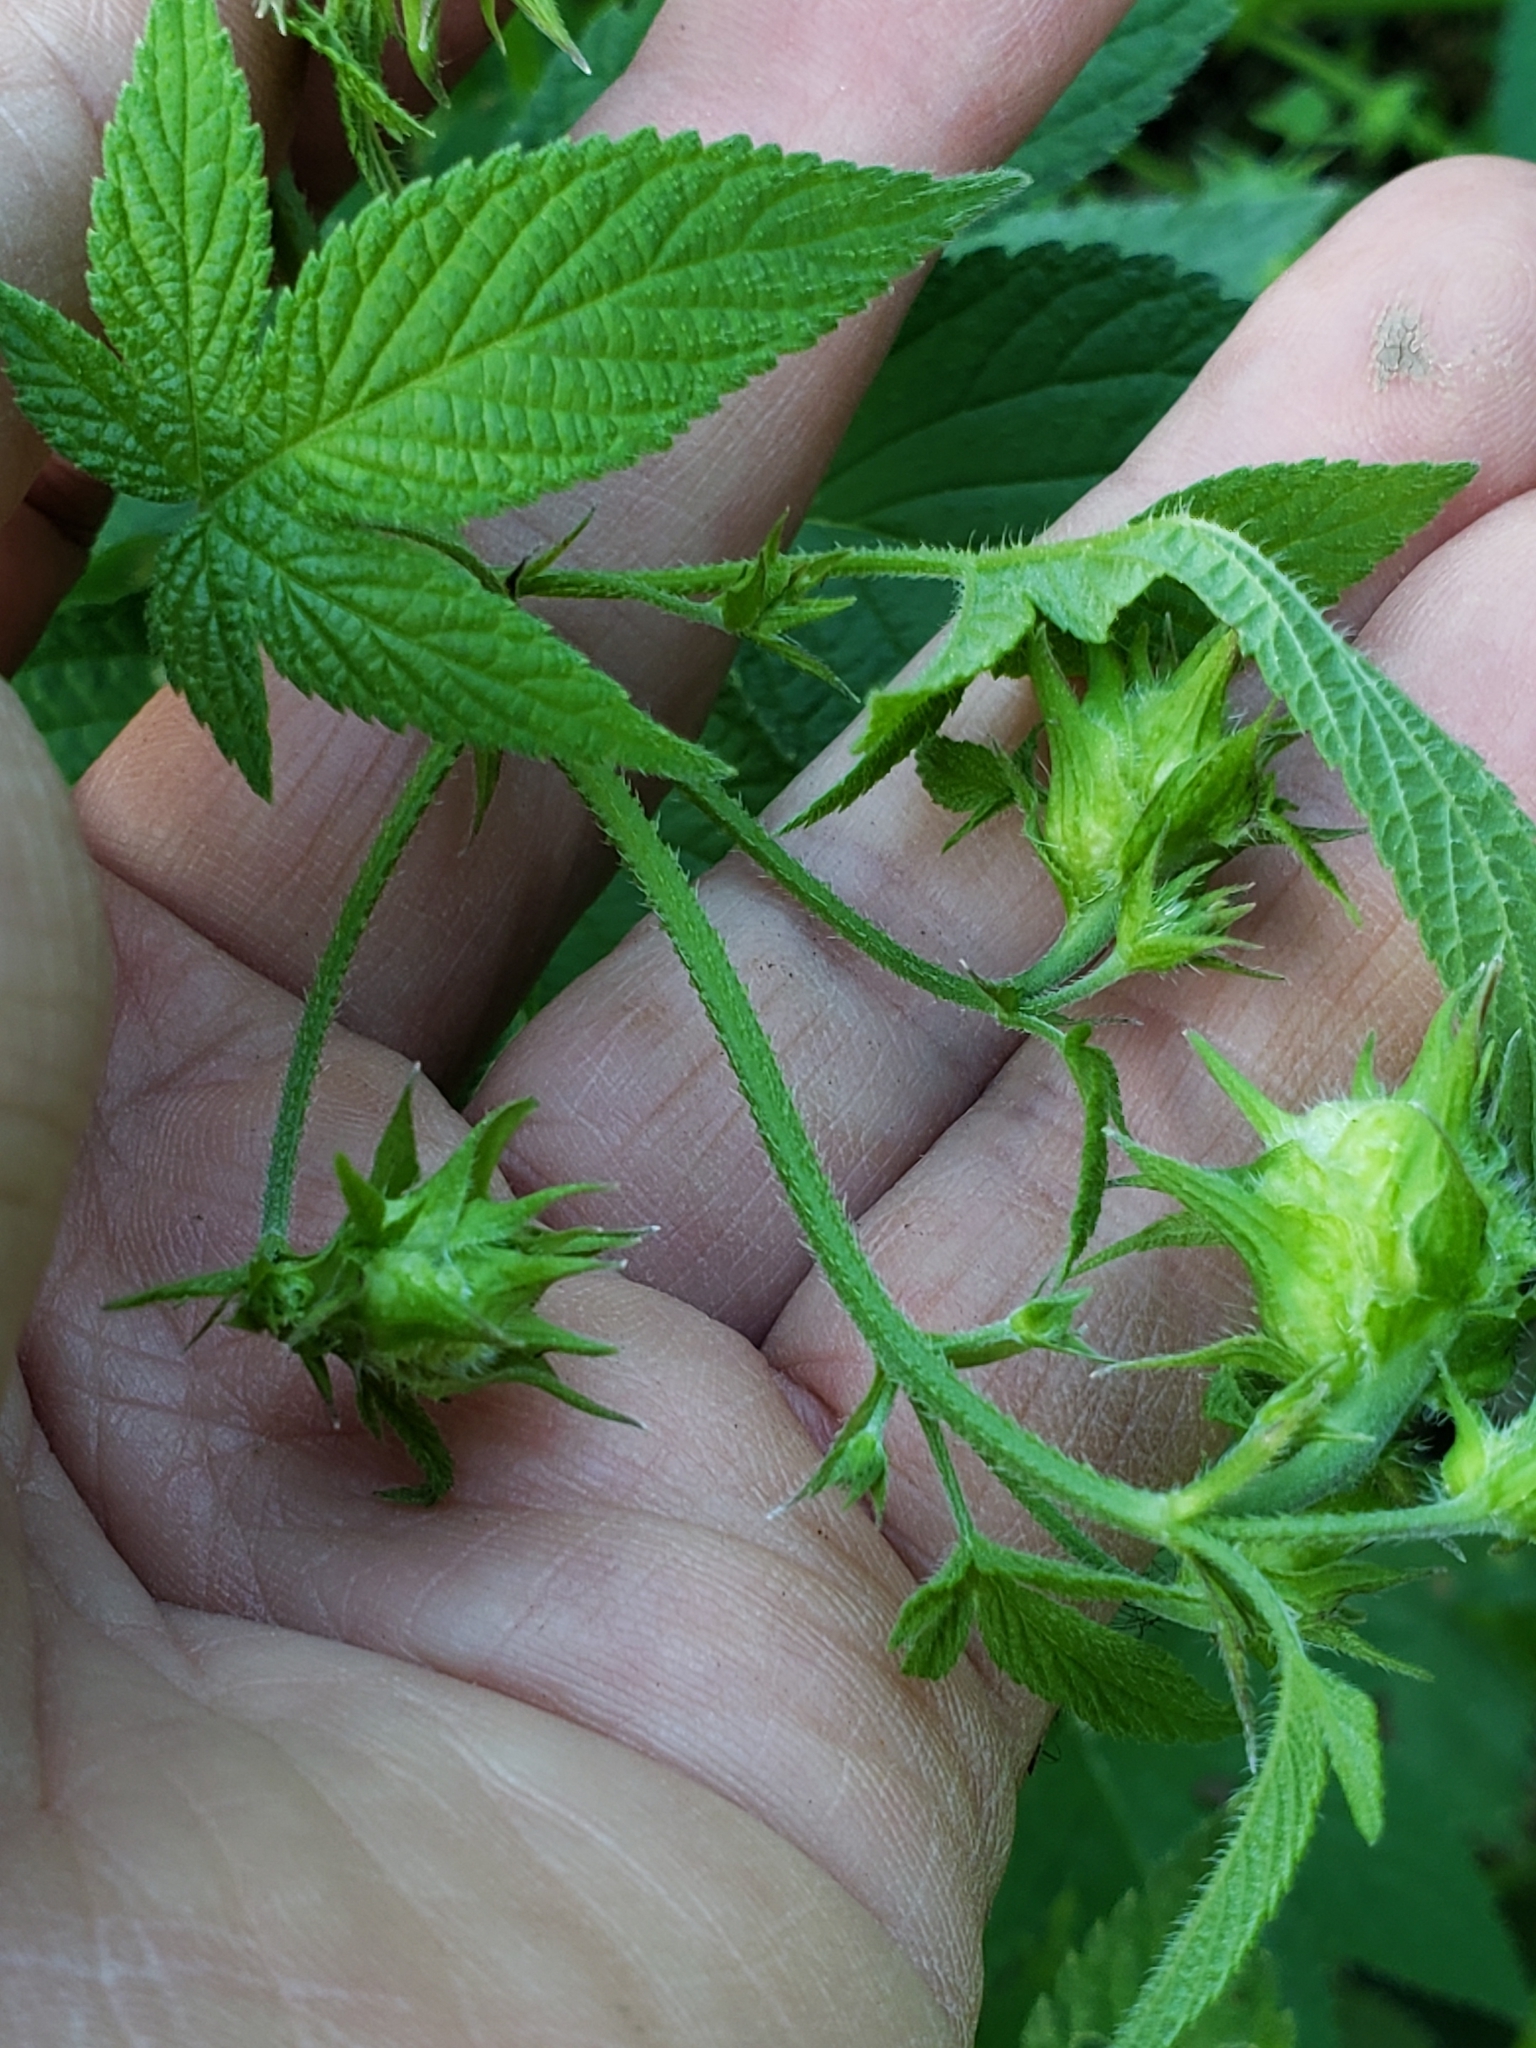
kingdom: Plantae
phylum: Tracheophyta
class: Magnoliopsida
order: Rosales
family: Cannabaceae
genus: Humulus
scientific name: Humulus scandens
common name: Japanese hop
